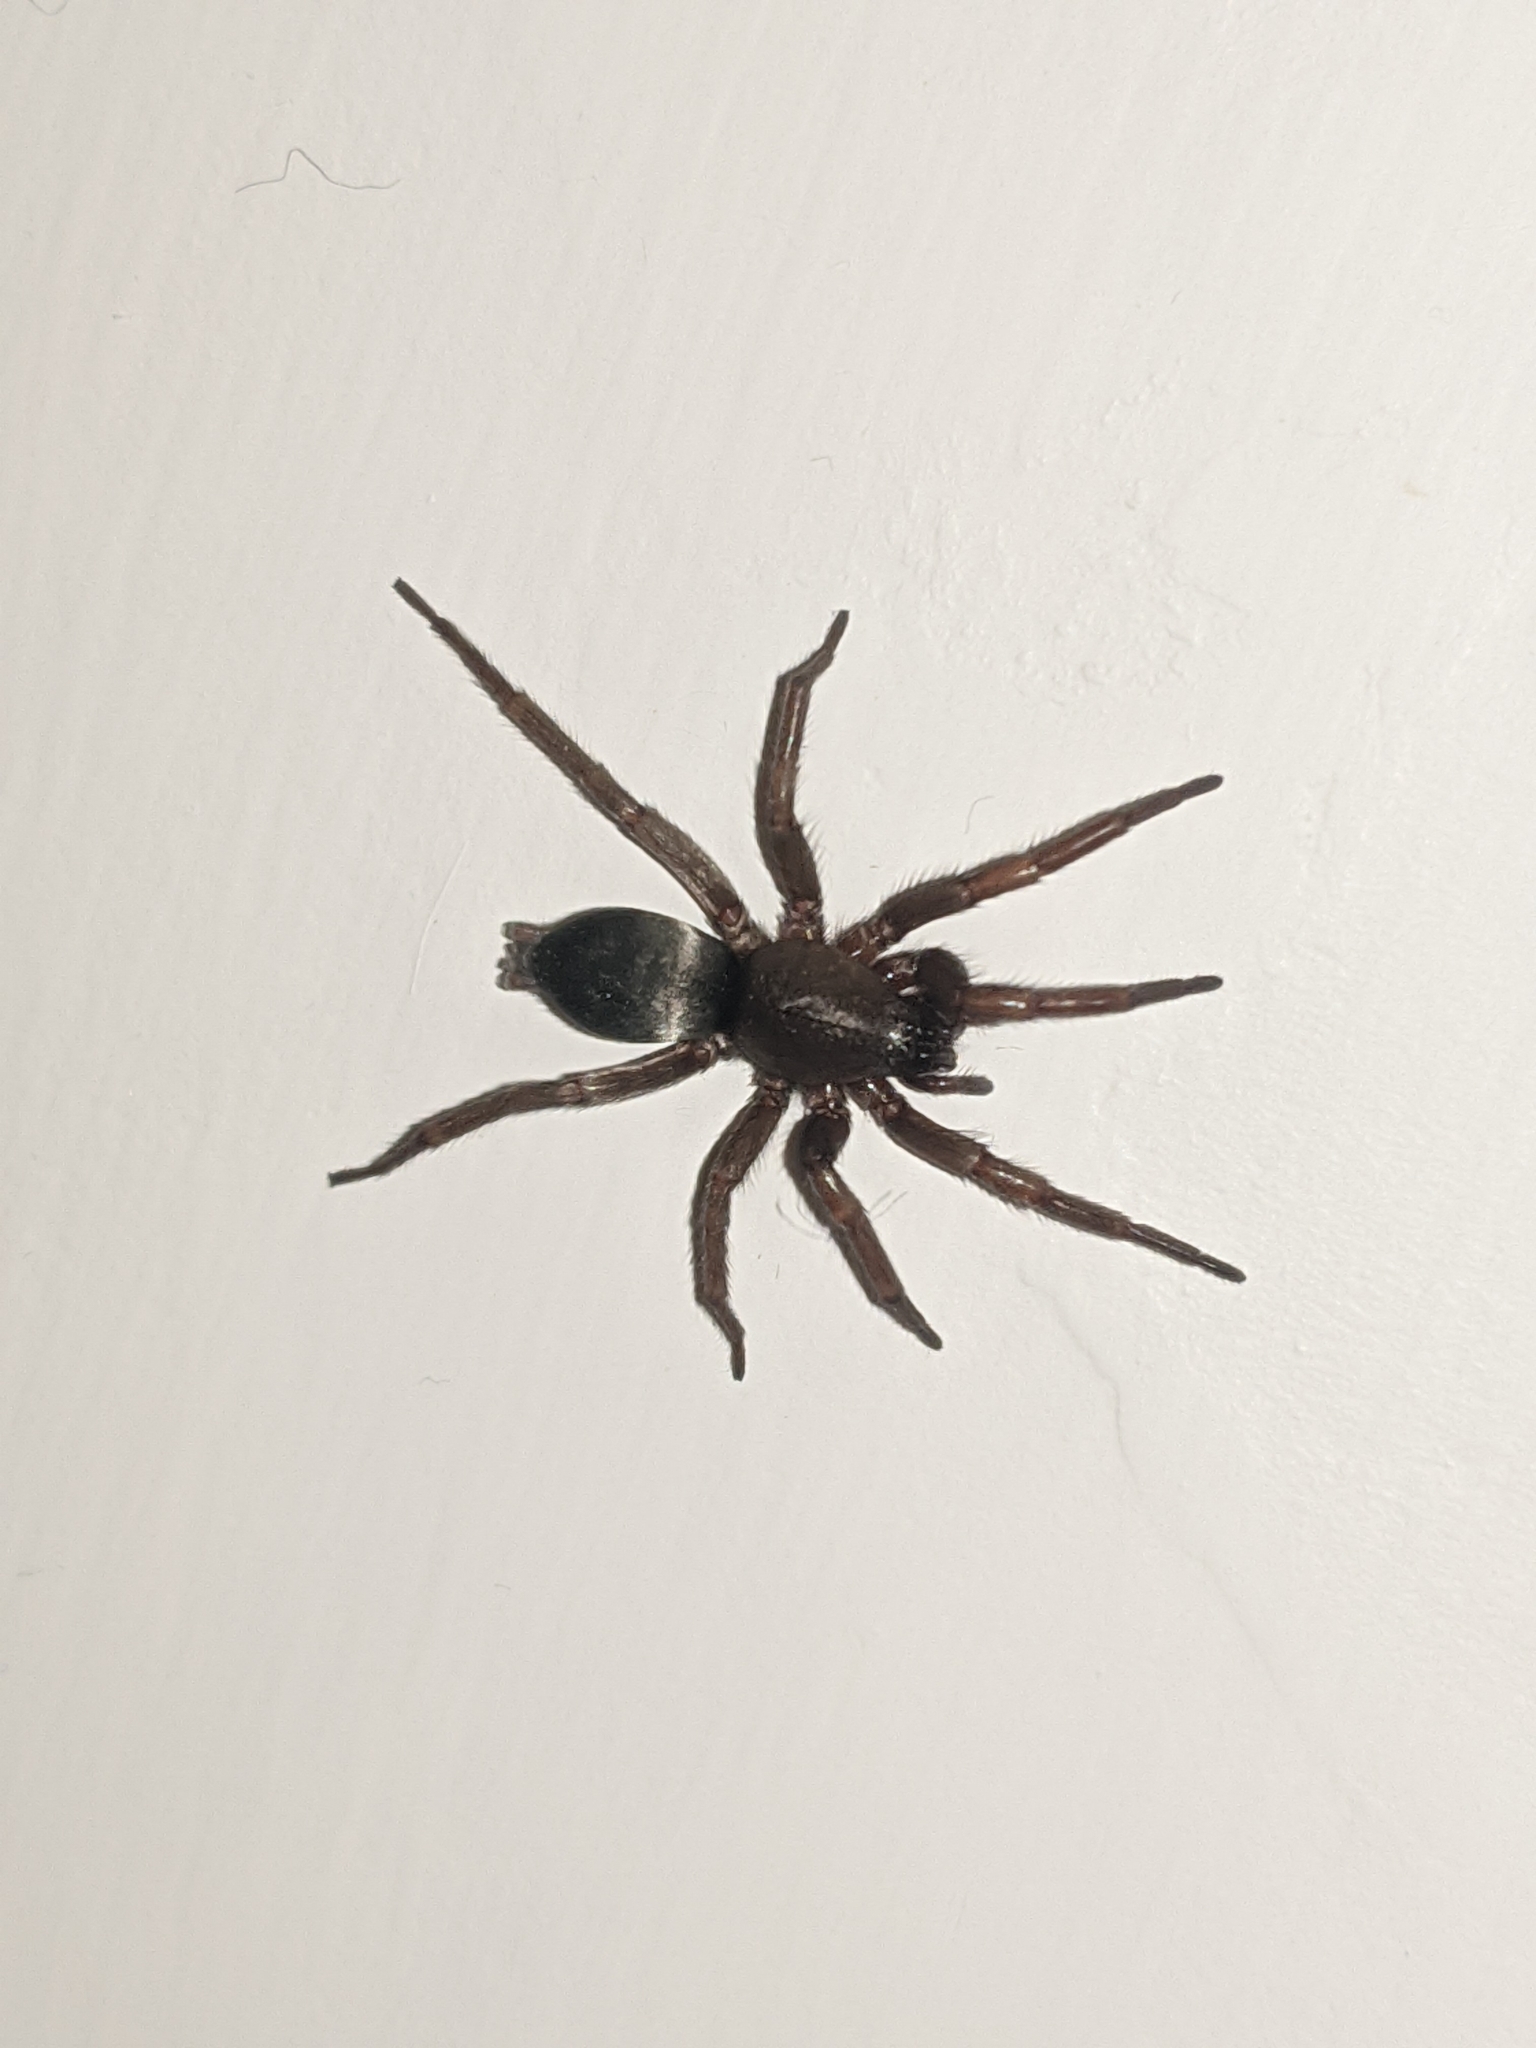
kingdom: Animalia
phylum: Arthropoda
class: Arachnida
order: Araneae
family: Gnaphosidae
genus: Scotophaeus
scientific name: Scotophaeus blackwalli
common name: Mouse spider
